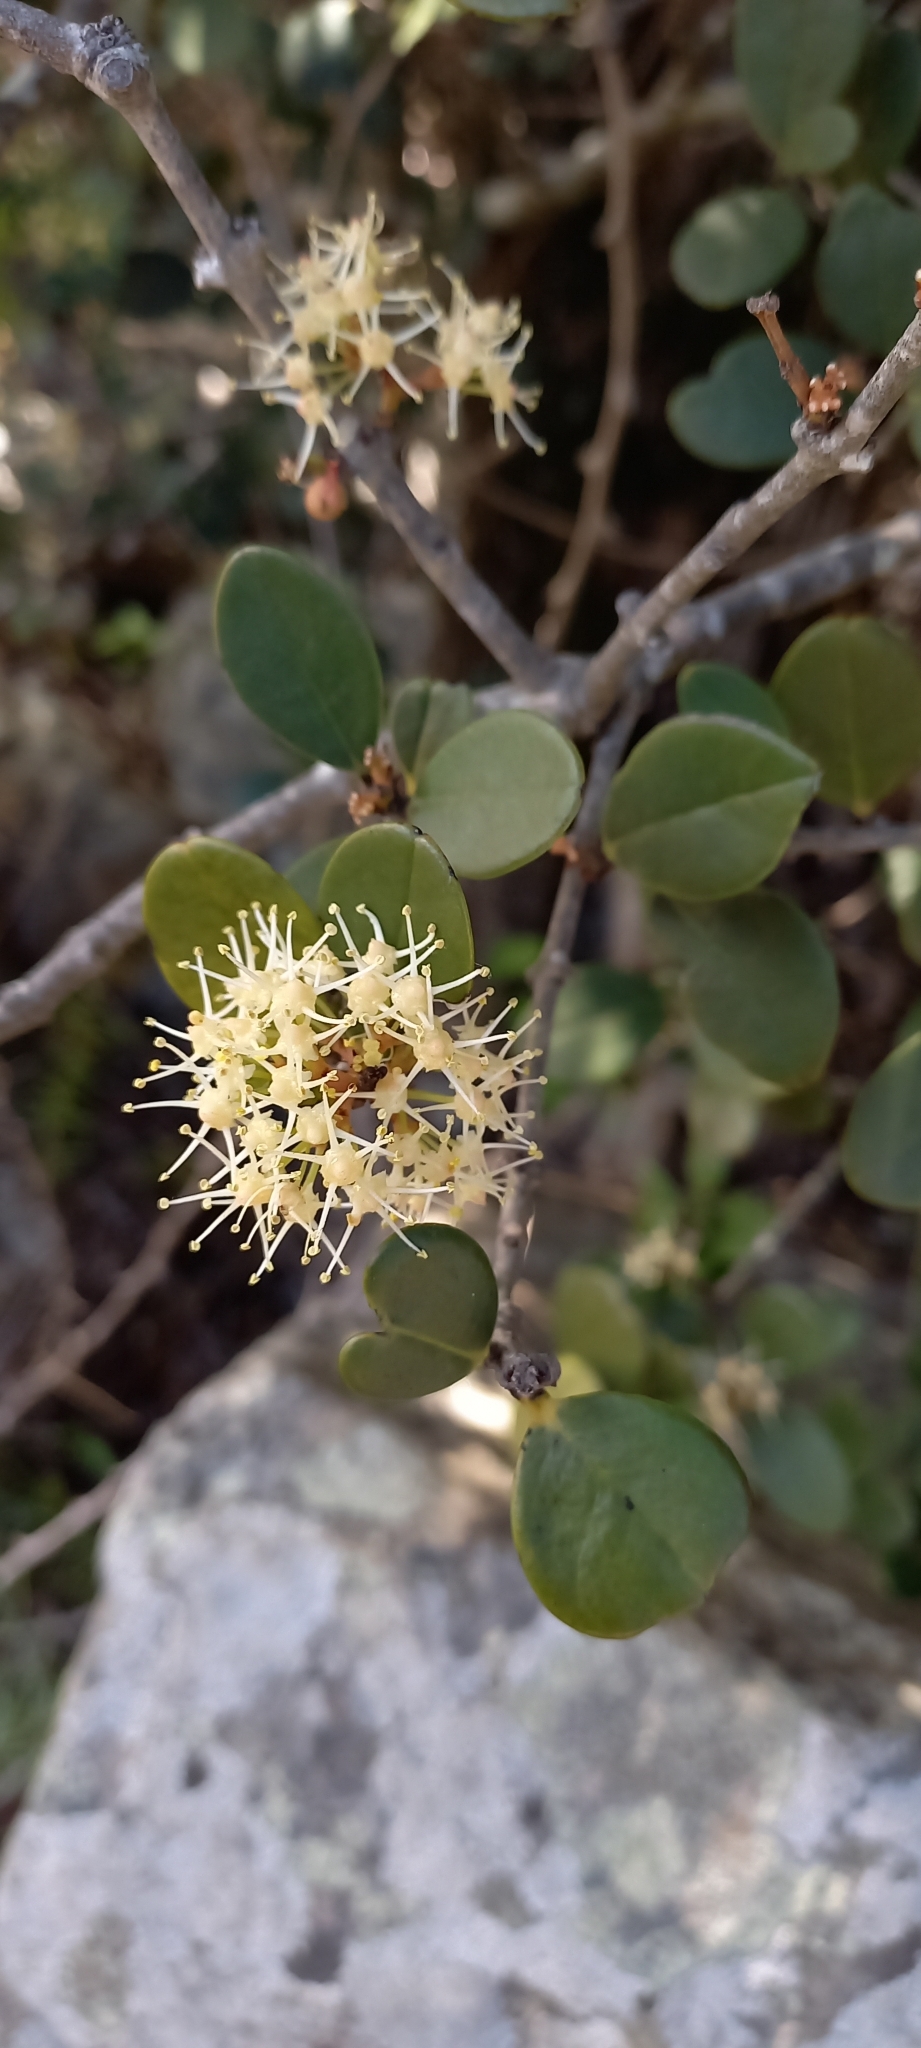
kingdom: Plantae
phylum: Tracheophyta
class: Magnoliopsida
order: Celastrales
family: Celastraceae
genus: Maurocenia
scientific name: Maurocenia frangula
